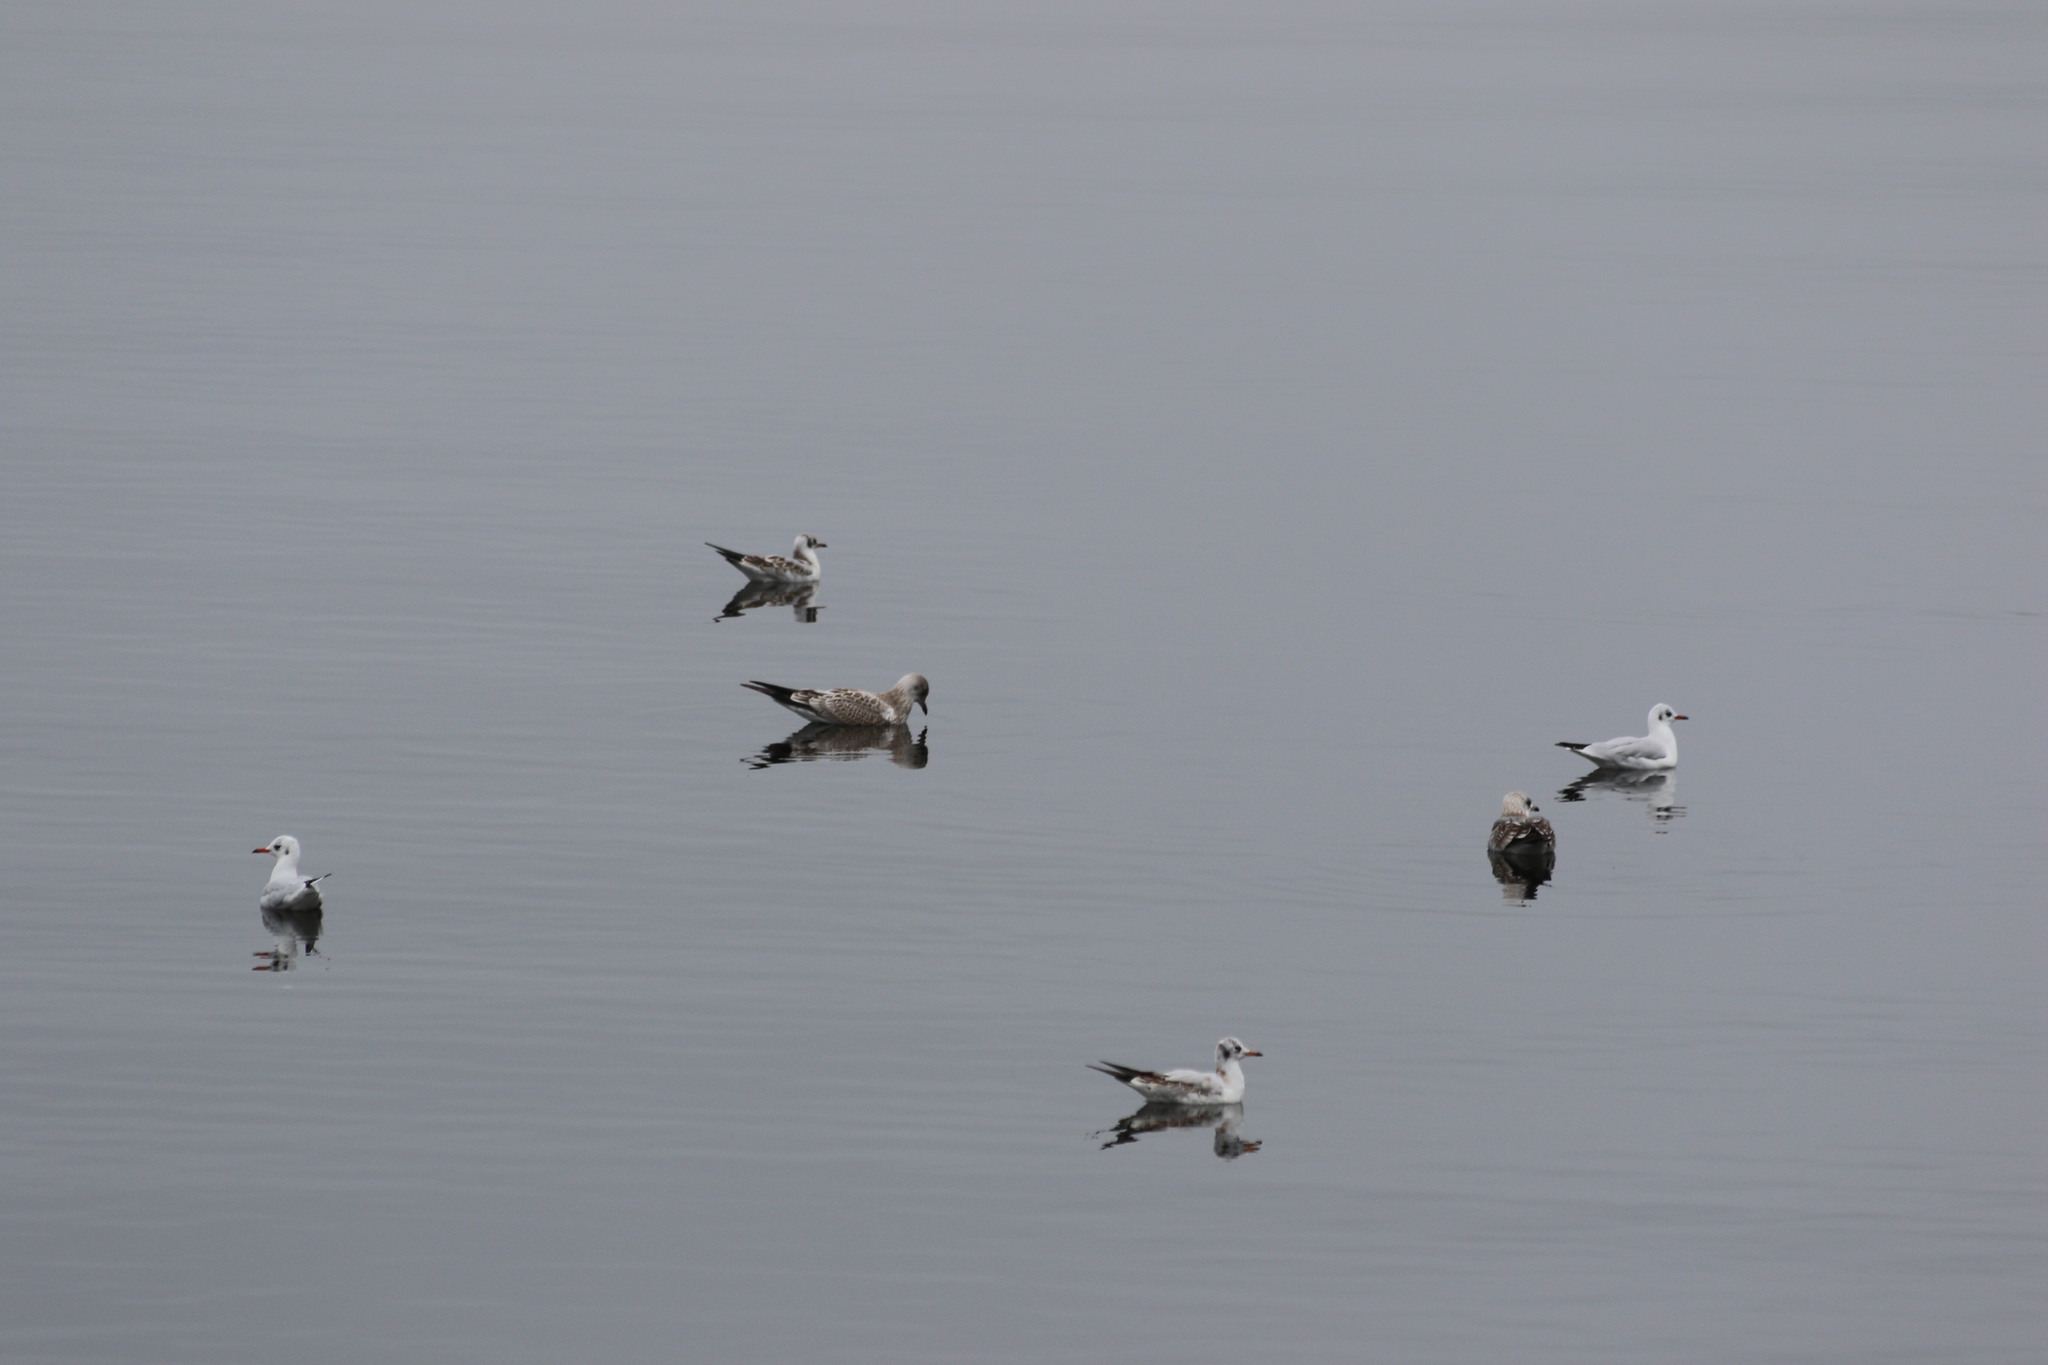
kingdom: Animalia
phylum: Chordata
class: Aves
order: Charadriiformes
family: Laridae
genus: Chroicocephalus
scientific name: Chroicocephalus ridibundus
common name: Black-headed gull
